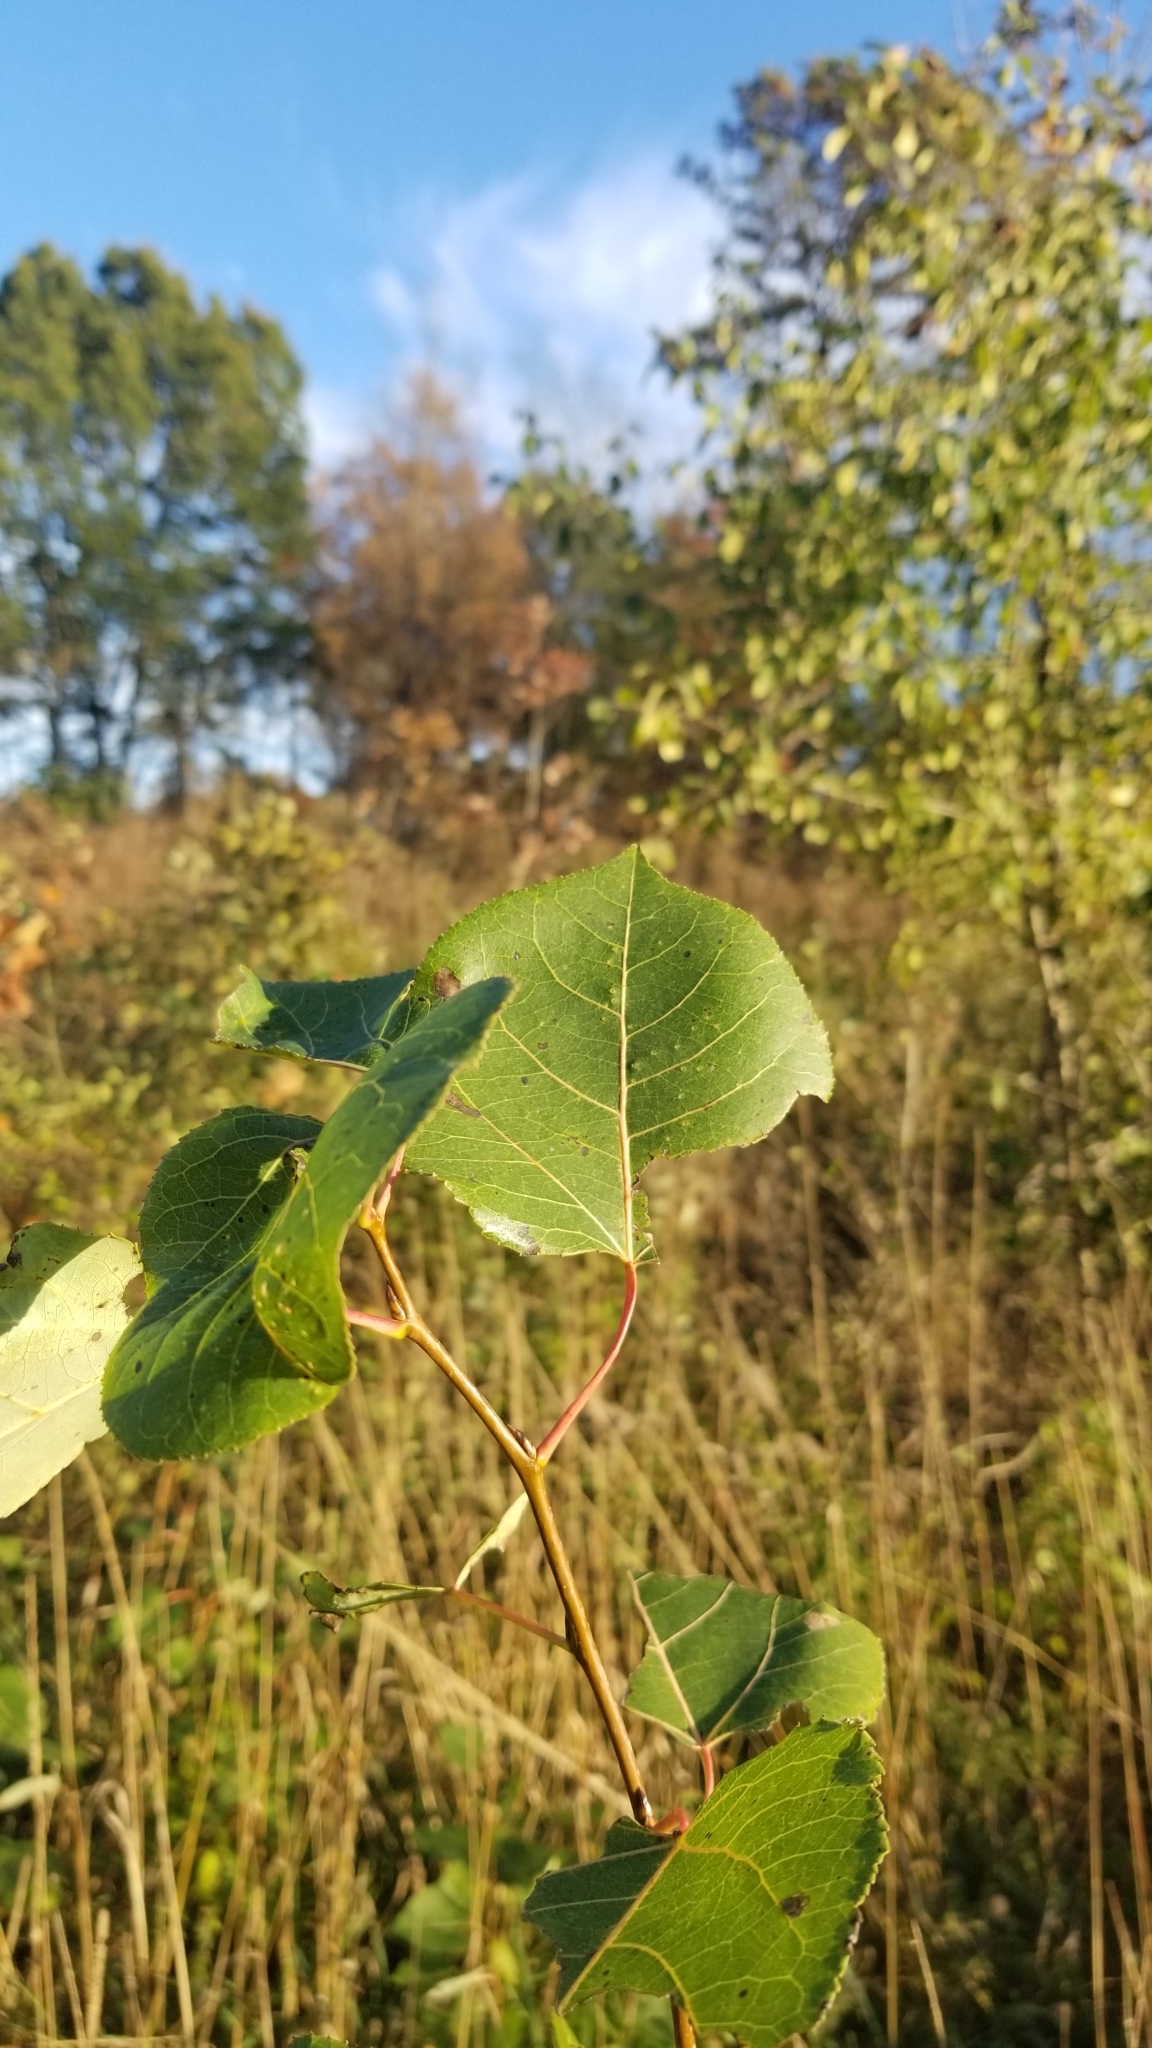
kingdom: Plantae
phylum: Tracheophyta
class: Magnoliopsida
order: Malpighiales
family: Salicaceae
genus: Populus
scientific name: Populus tremuloides
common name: Quaking aspen
